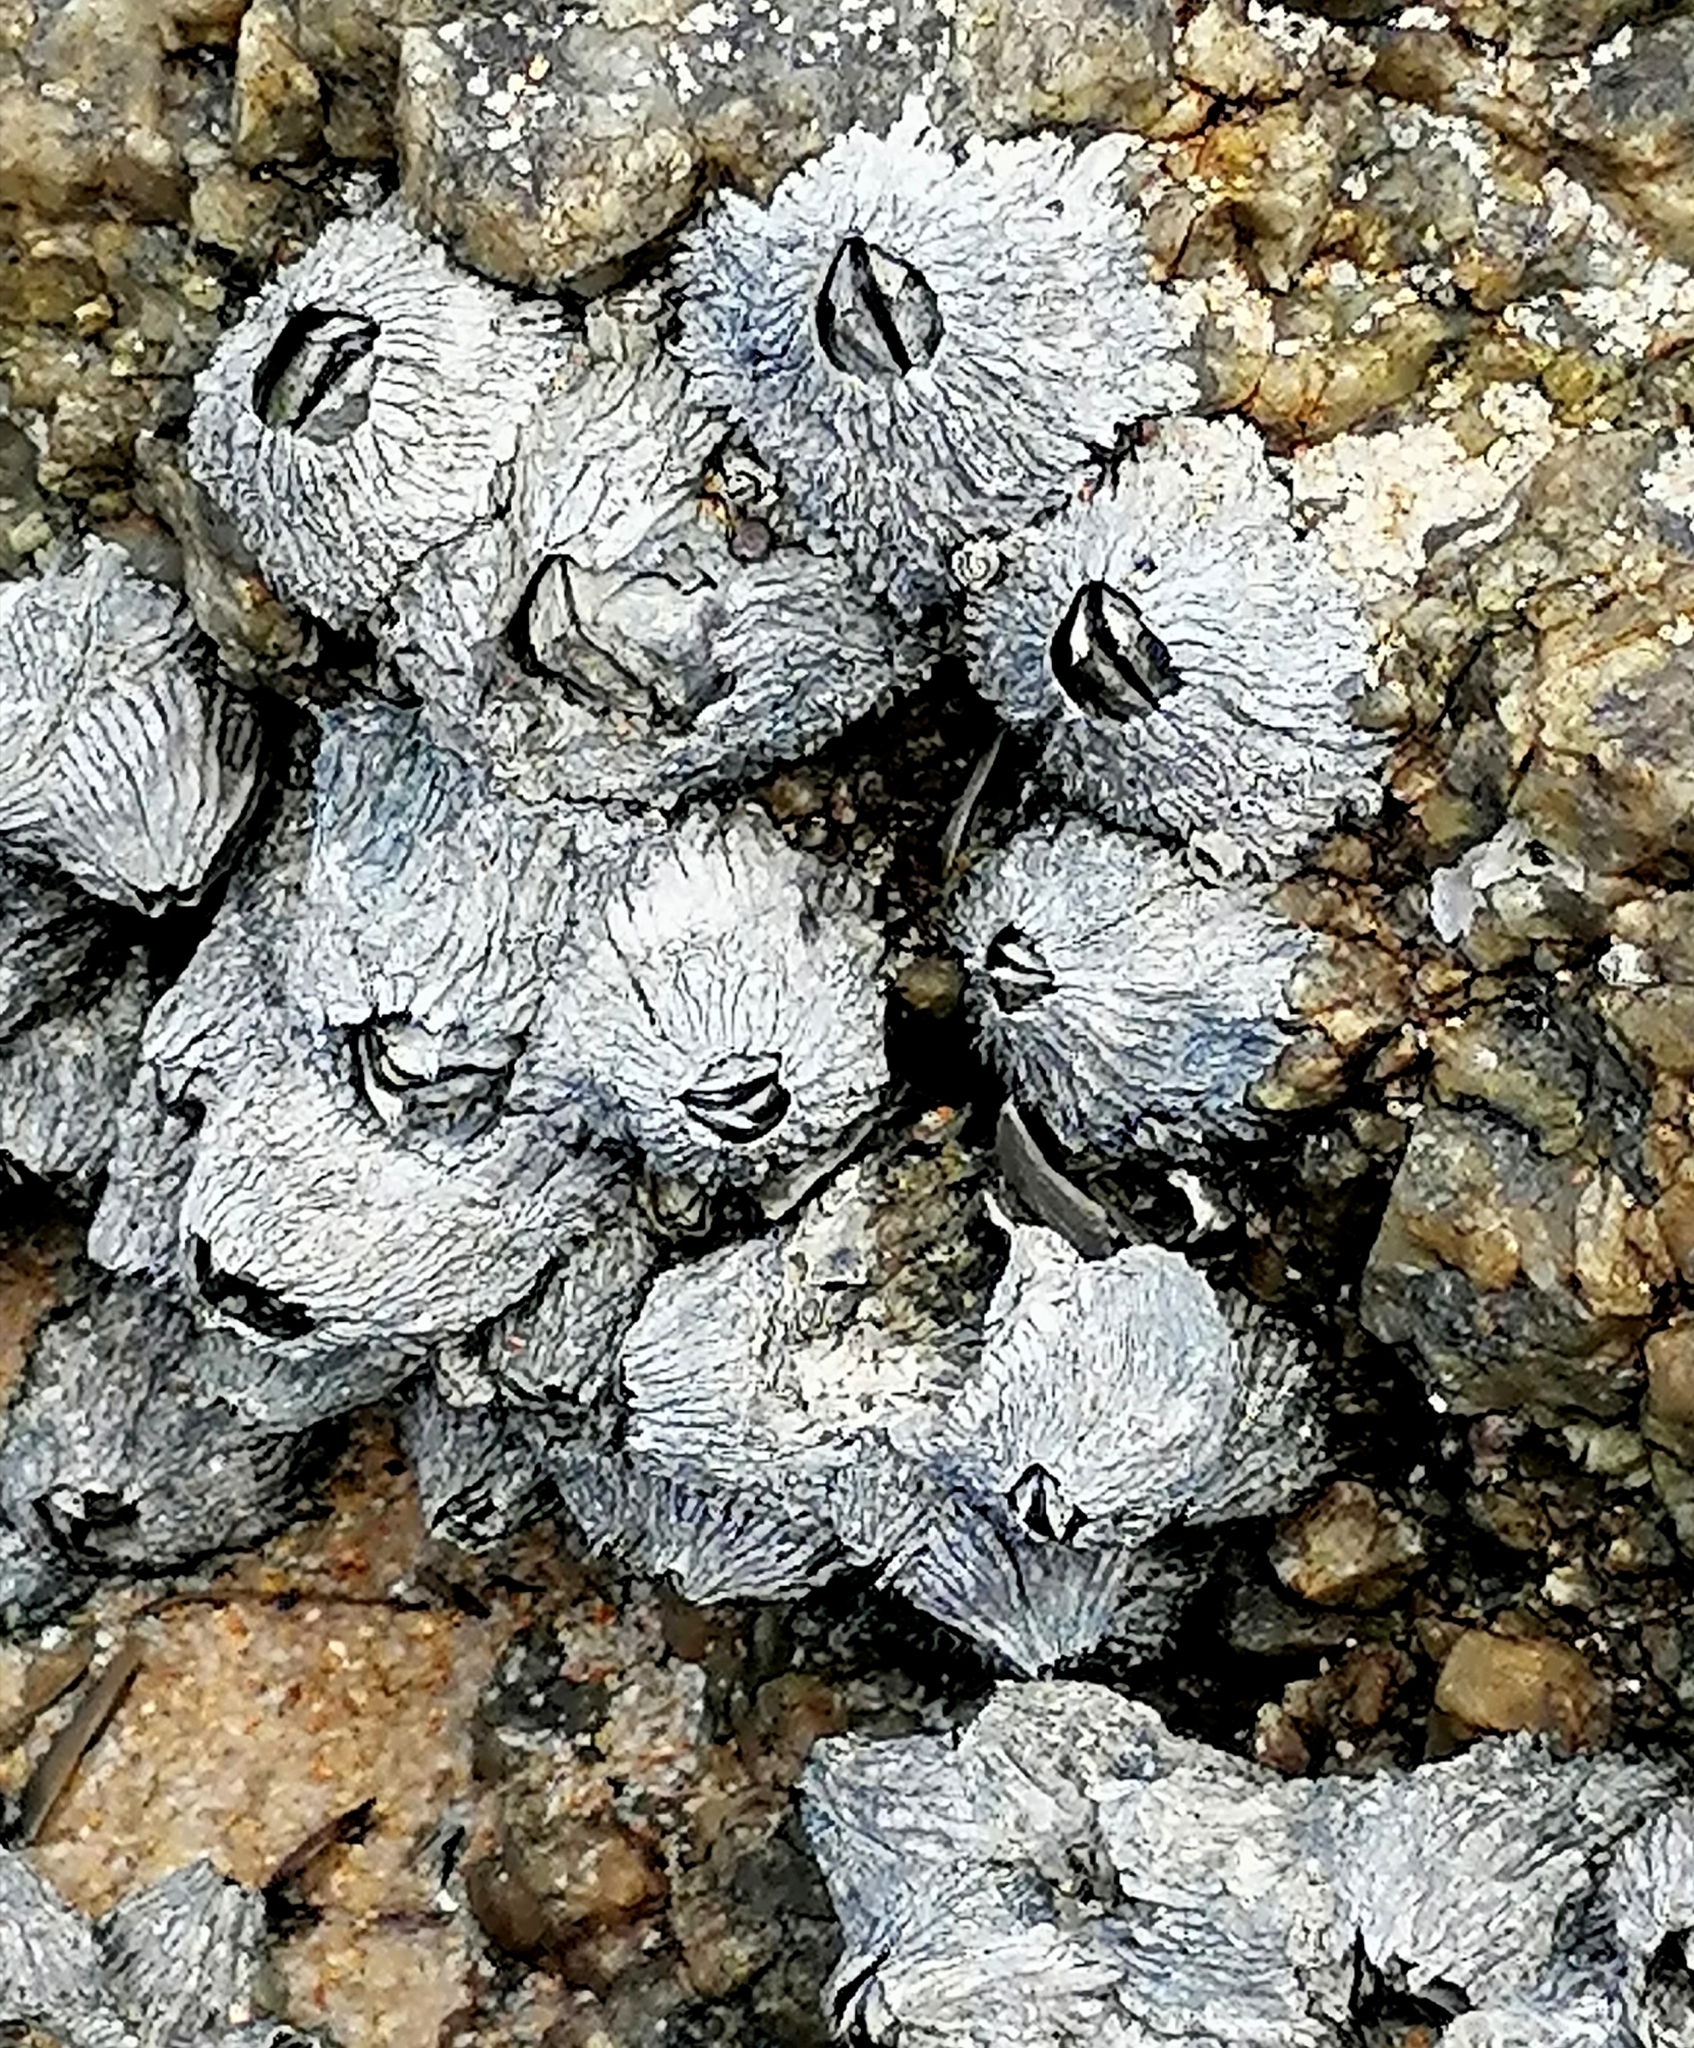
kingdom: Animalia
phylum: Arthropoda
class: Maxillopoda
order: Sessilia
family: Tetraclitidae
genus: Tetraclita
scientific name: Tetraclita serrata
